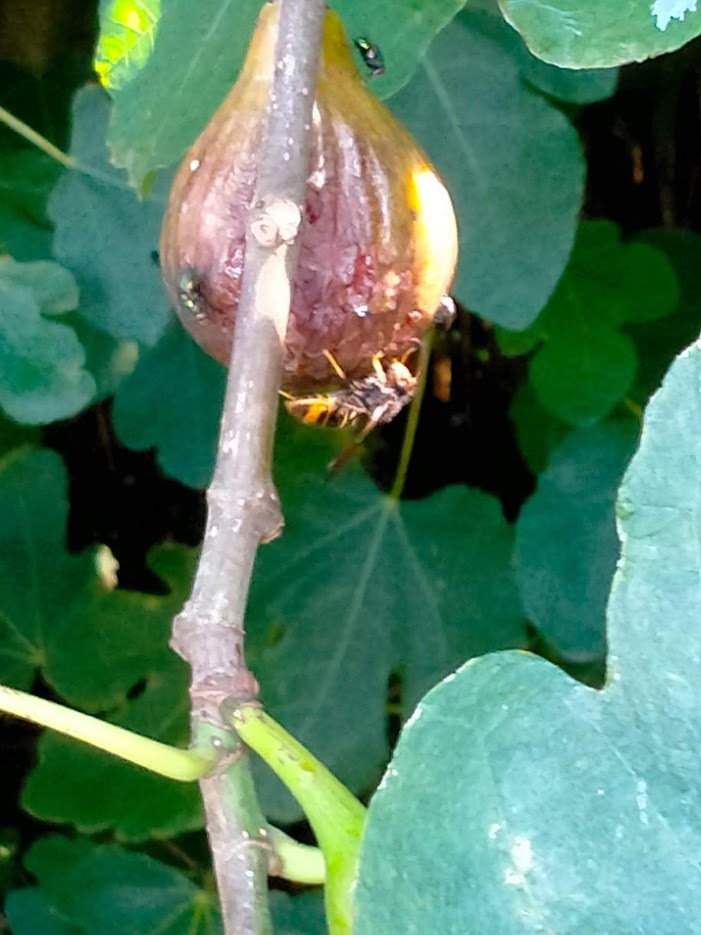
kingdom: Animalia
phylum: Arthropoda
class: Insecta
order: Hymenoptera
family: Vespidae
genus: Vespa
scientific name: Vespa velutina
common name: Asian hornet
